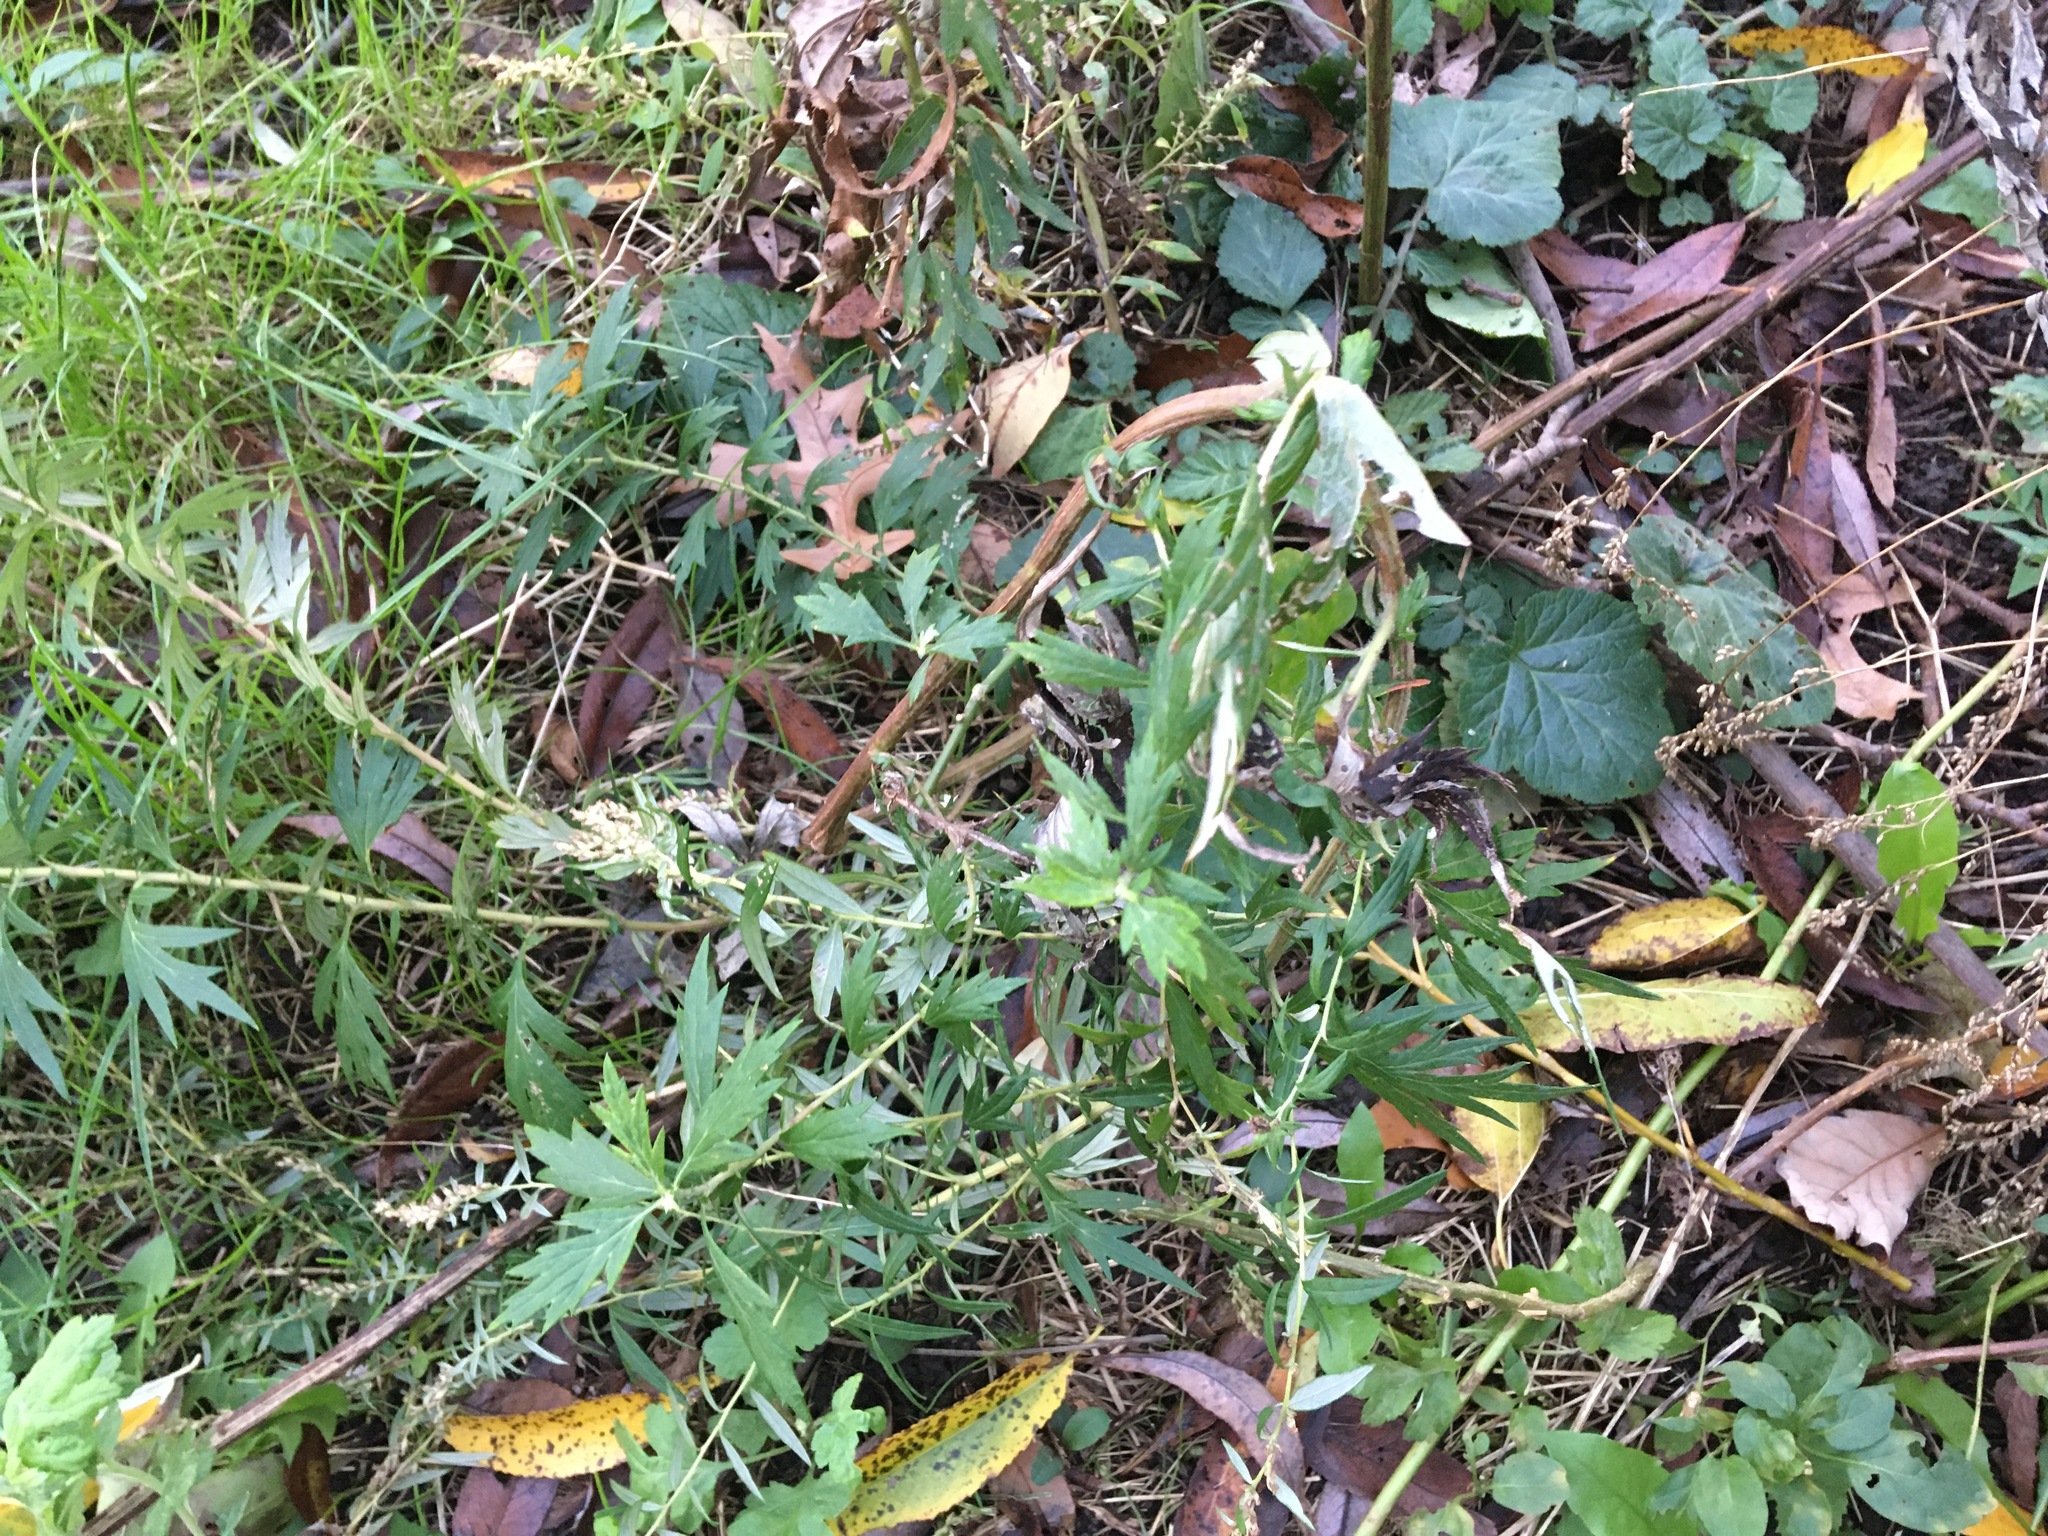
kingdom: Plantae
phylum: Tracheophyta
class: Magnoliopsida
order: Asterales
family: Asteraceae
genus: Artemisia
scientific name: Artemisia vulgaris
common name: Mugwort
